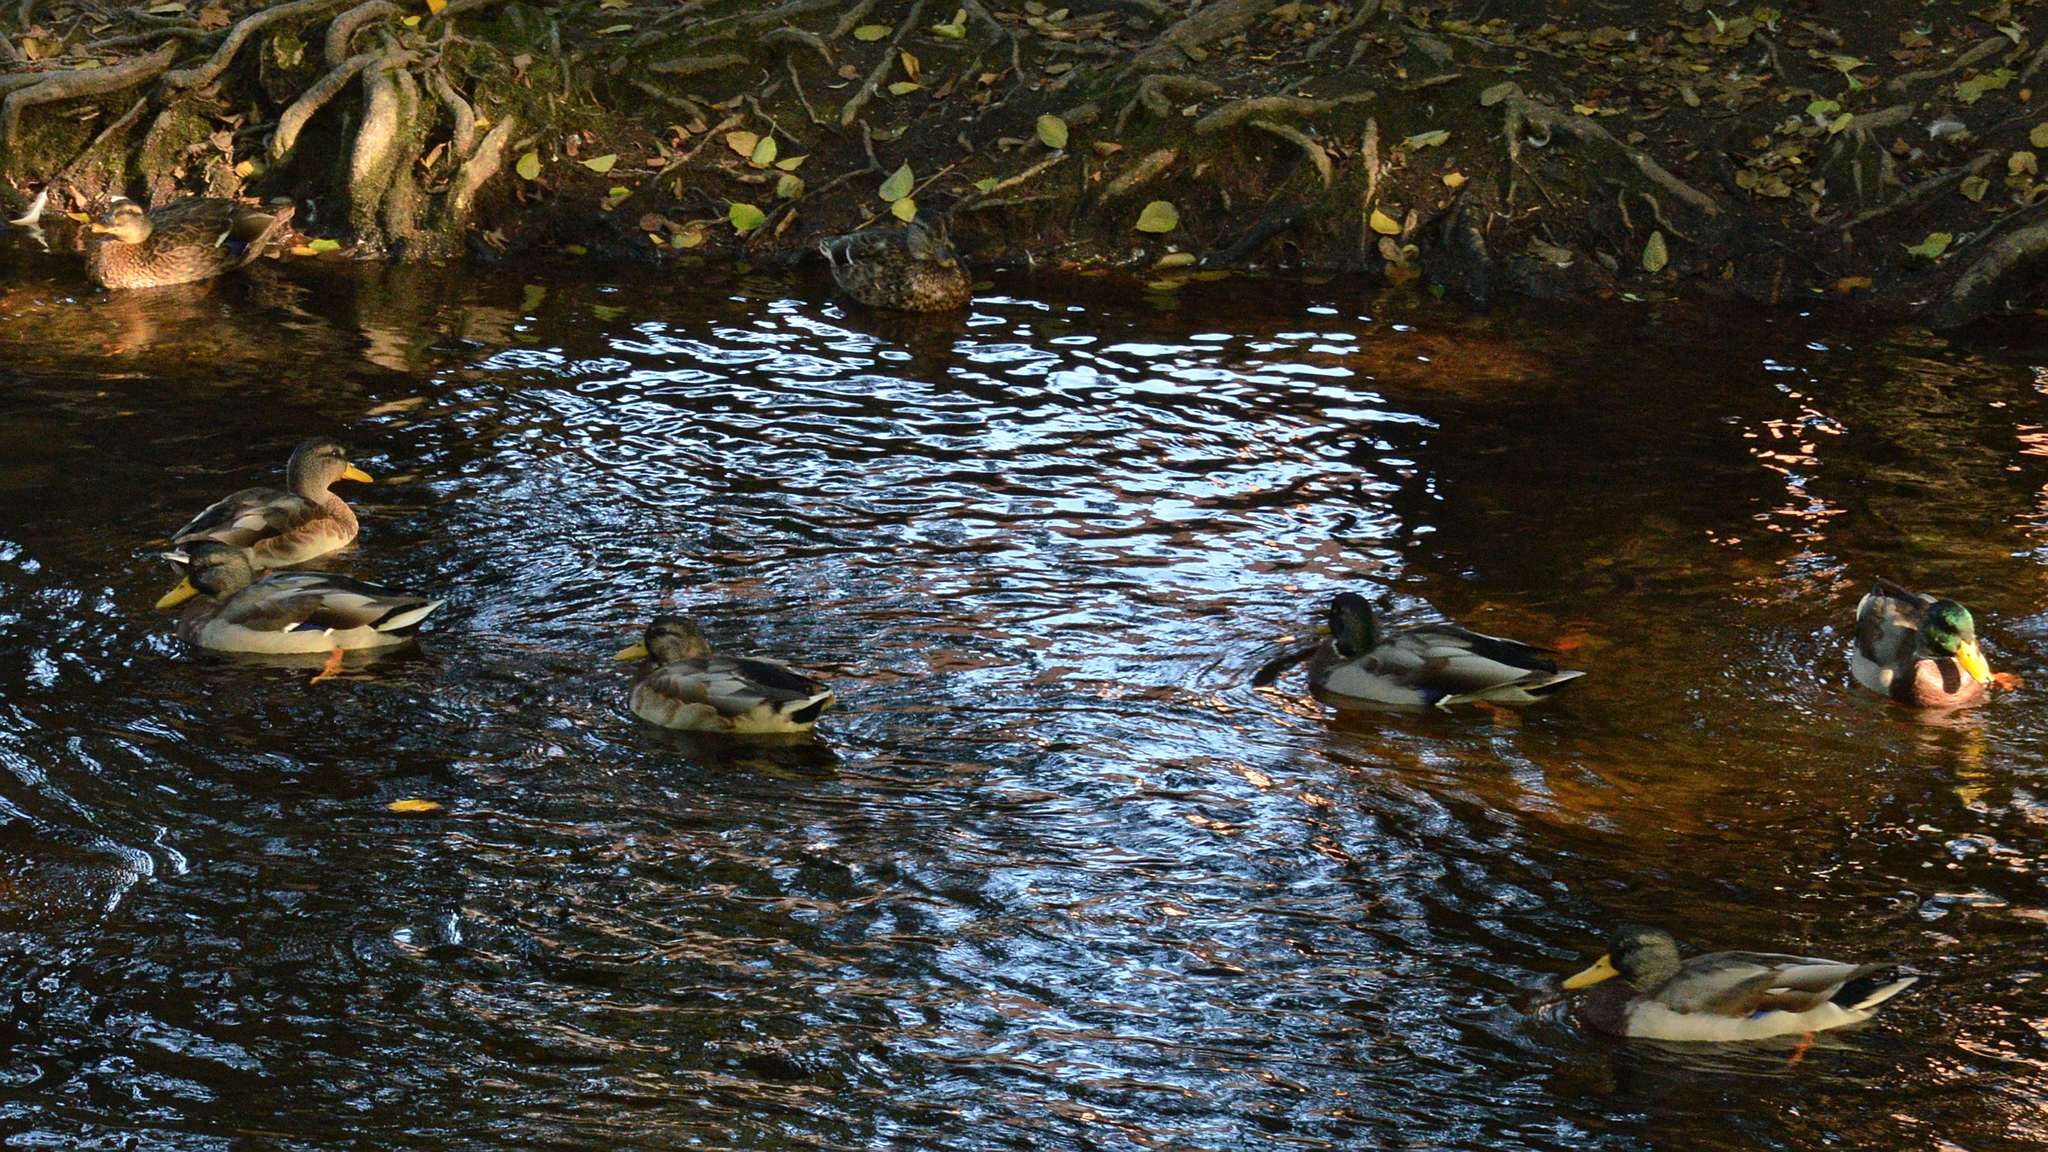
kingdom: Animalia
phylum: Chordata
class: Aves
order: Anseriformes
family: Anatidae
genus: Anas
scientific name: Anas platyrhynchos
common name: Mallard
